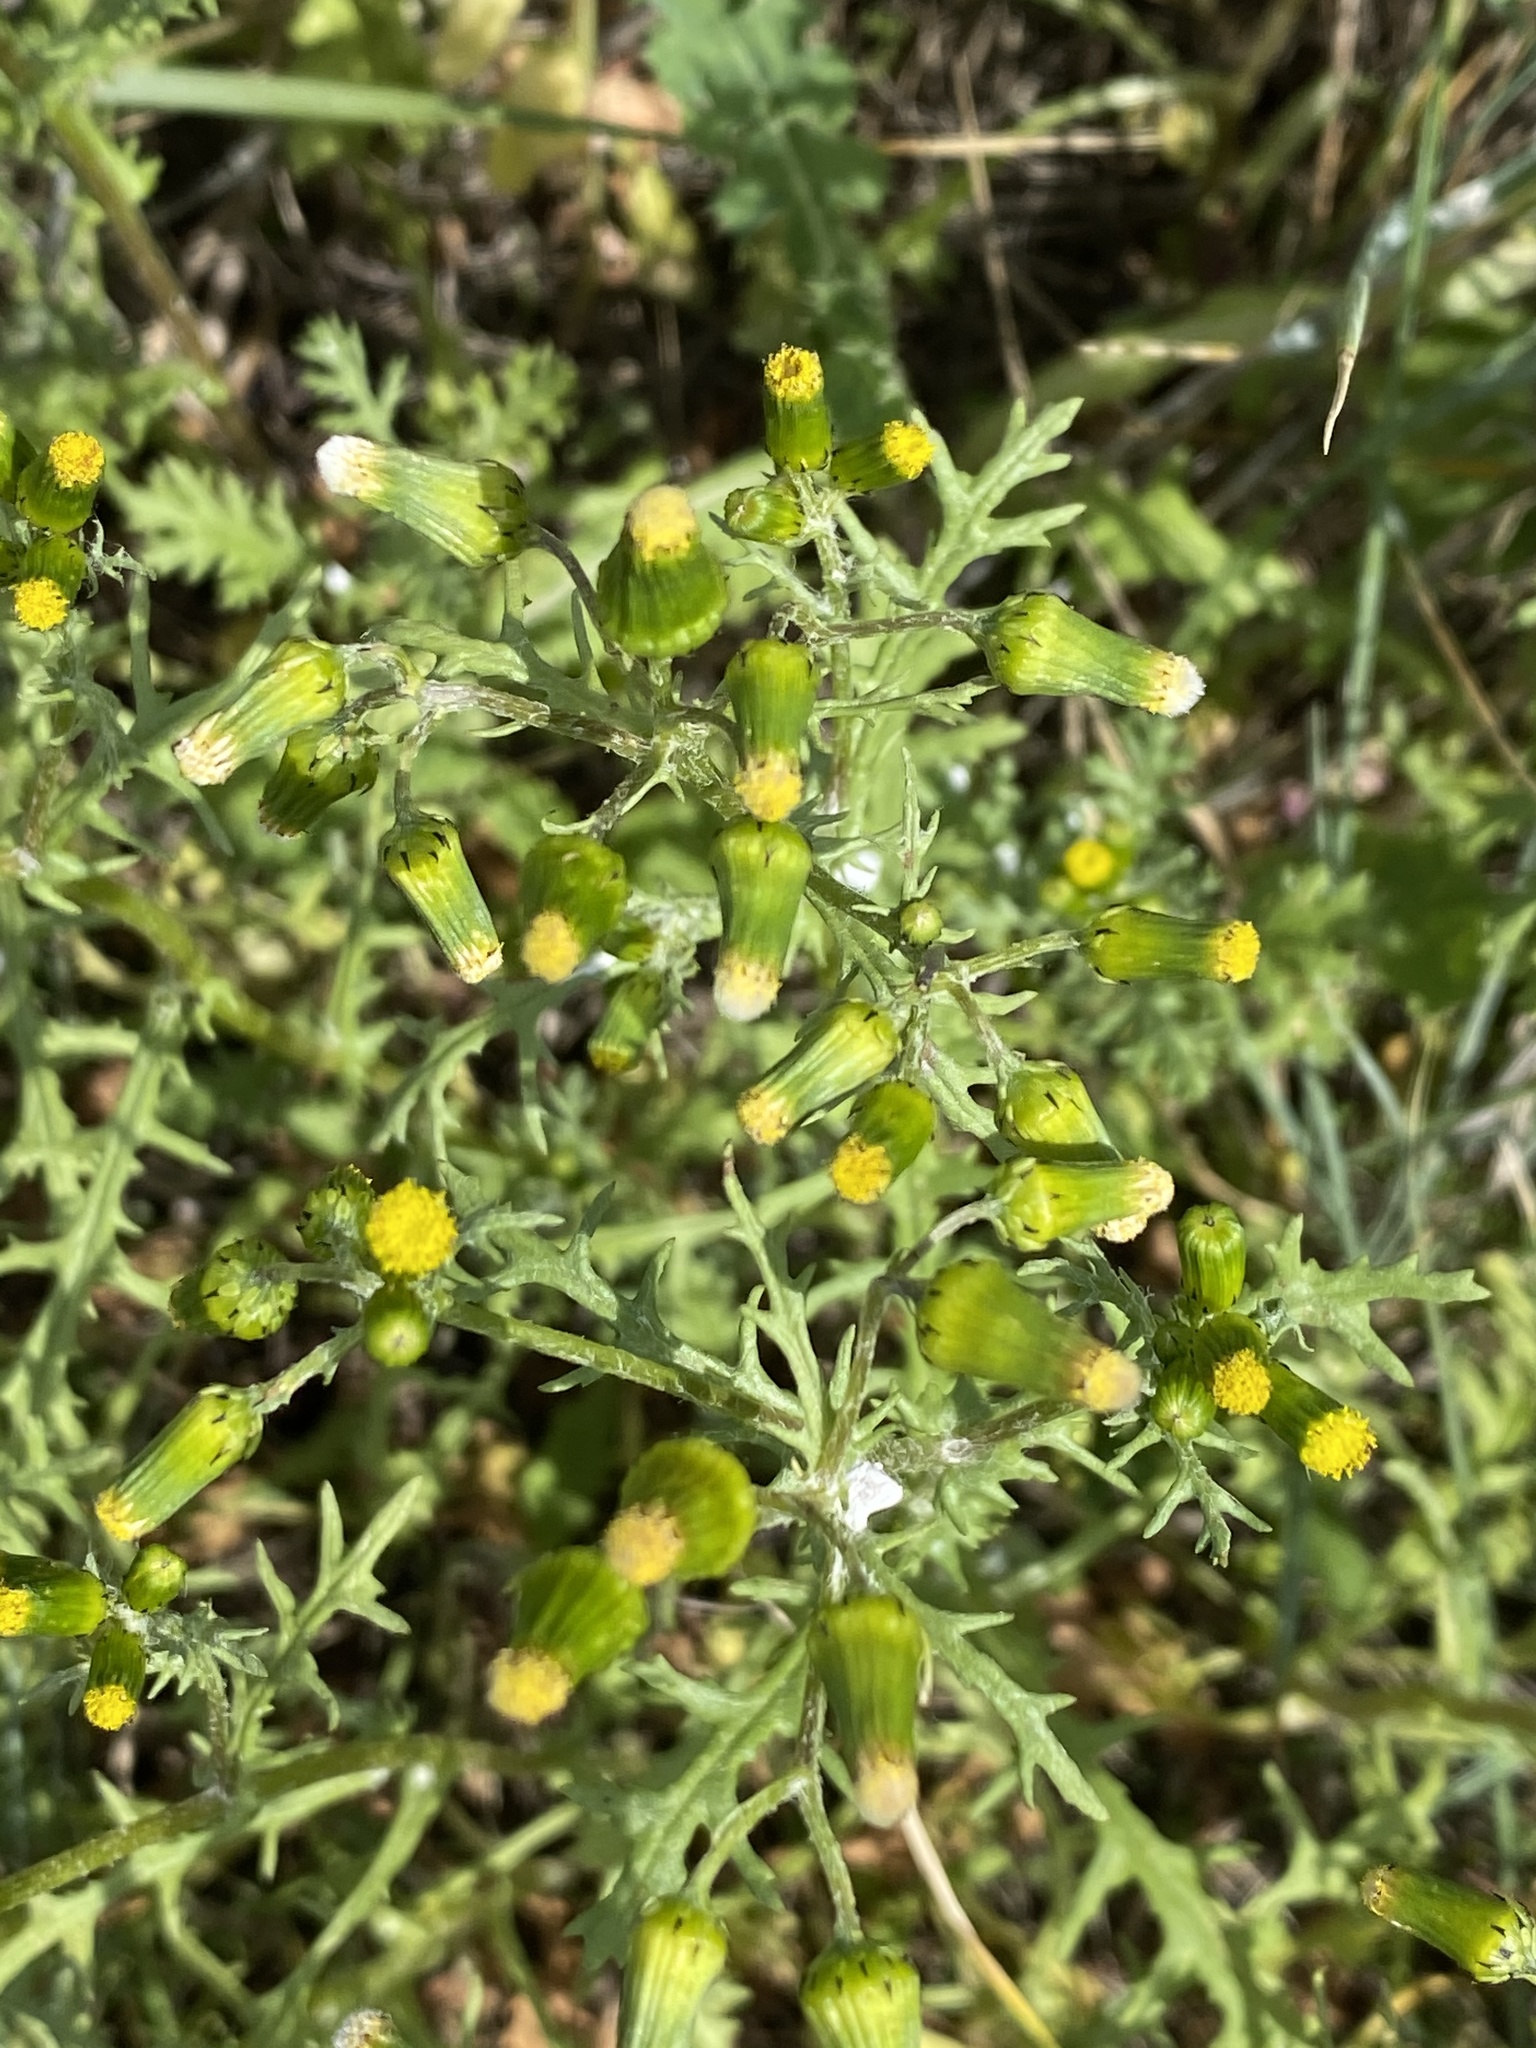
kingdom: Plantae
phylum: Tracheophyta
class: Magnoliopsida
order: Asterales
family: Asteraceae
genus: Senecio
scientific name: Senecio vulgaris
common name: Old-man-in-the-spring
